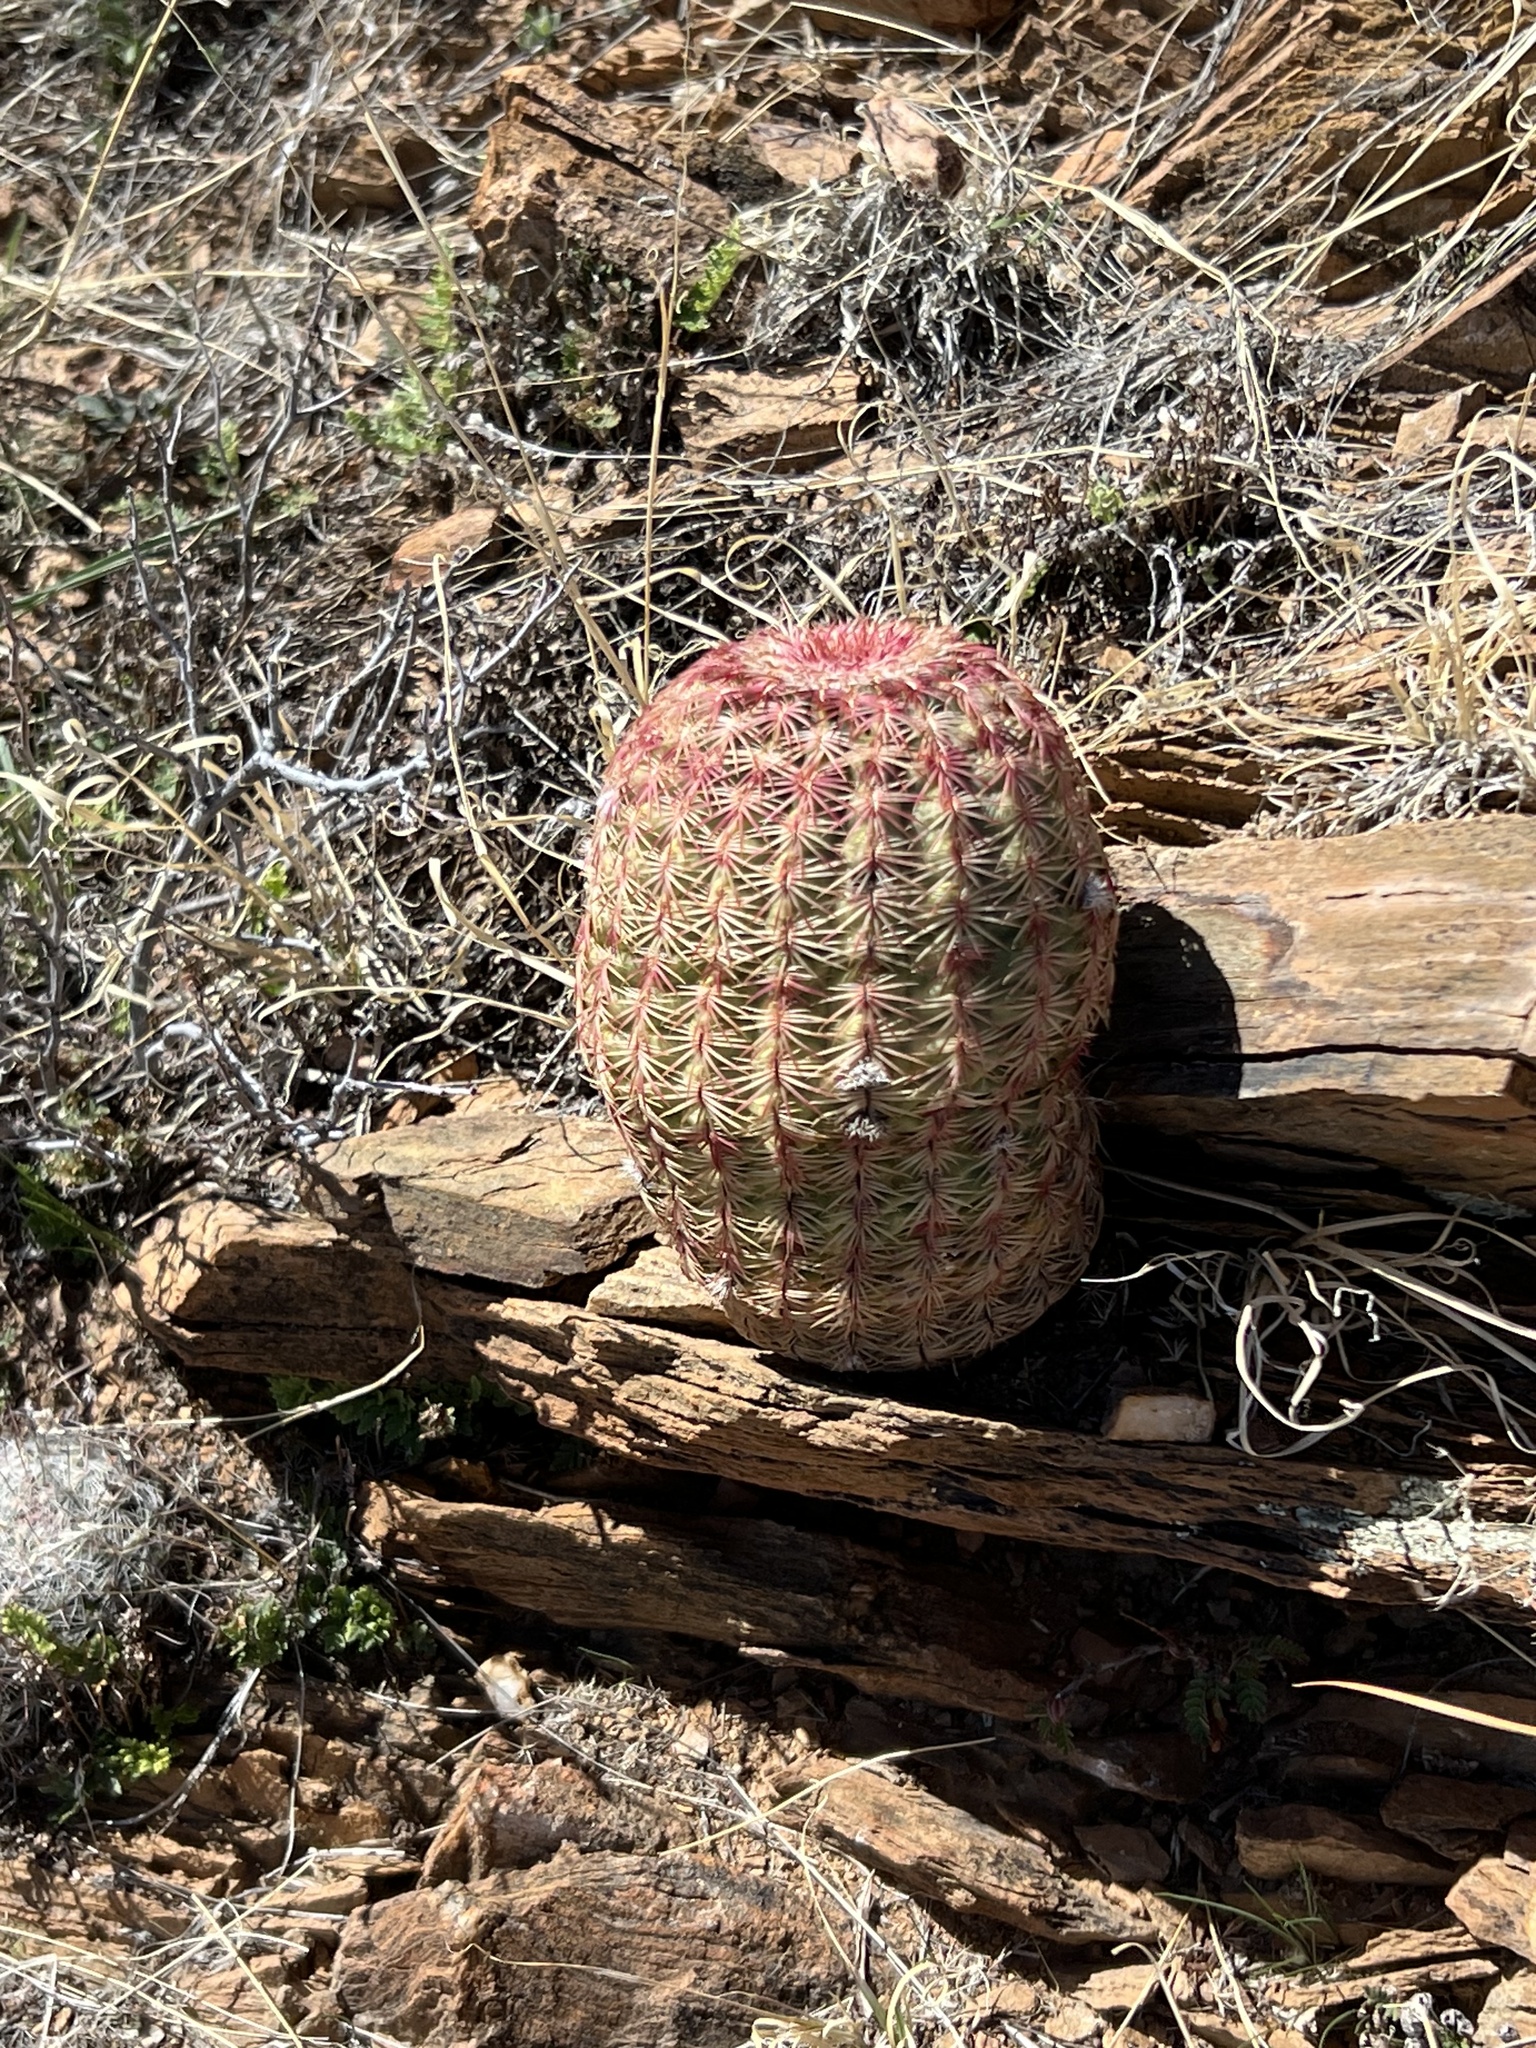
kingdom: Plantae
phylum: Tracheophyta
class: Magnoliopsida
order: Caryophyllales
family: Cactaceae
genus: Echinocereus
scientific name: Echinocereus rigidissimus
